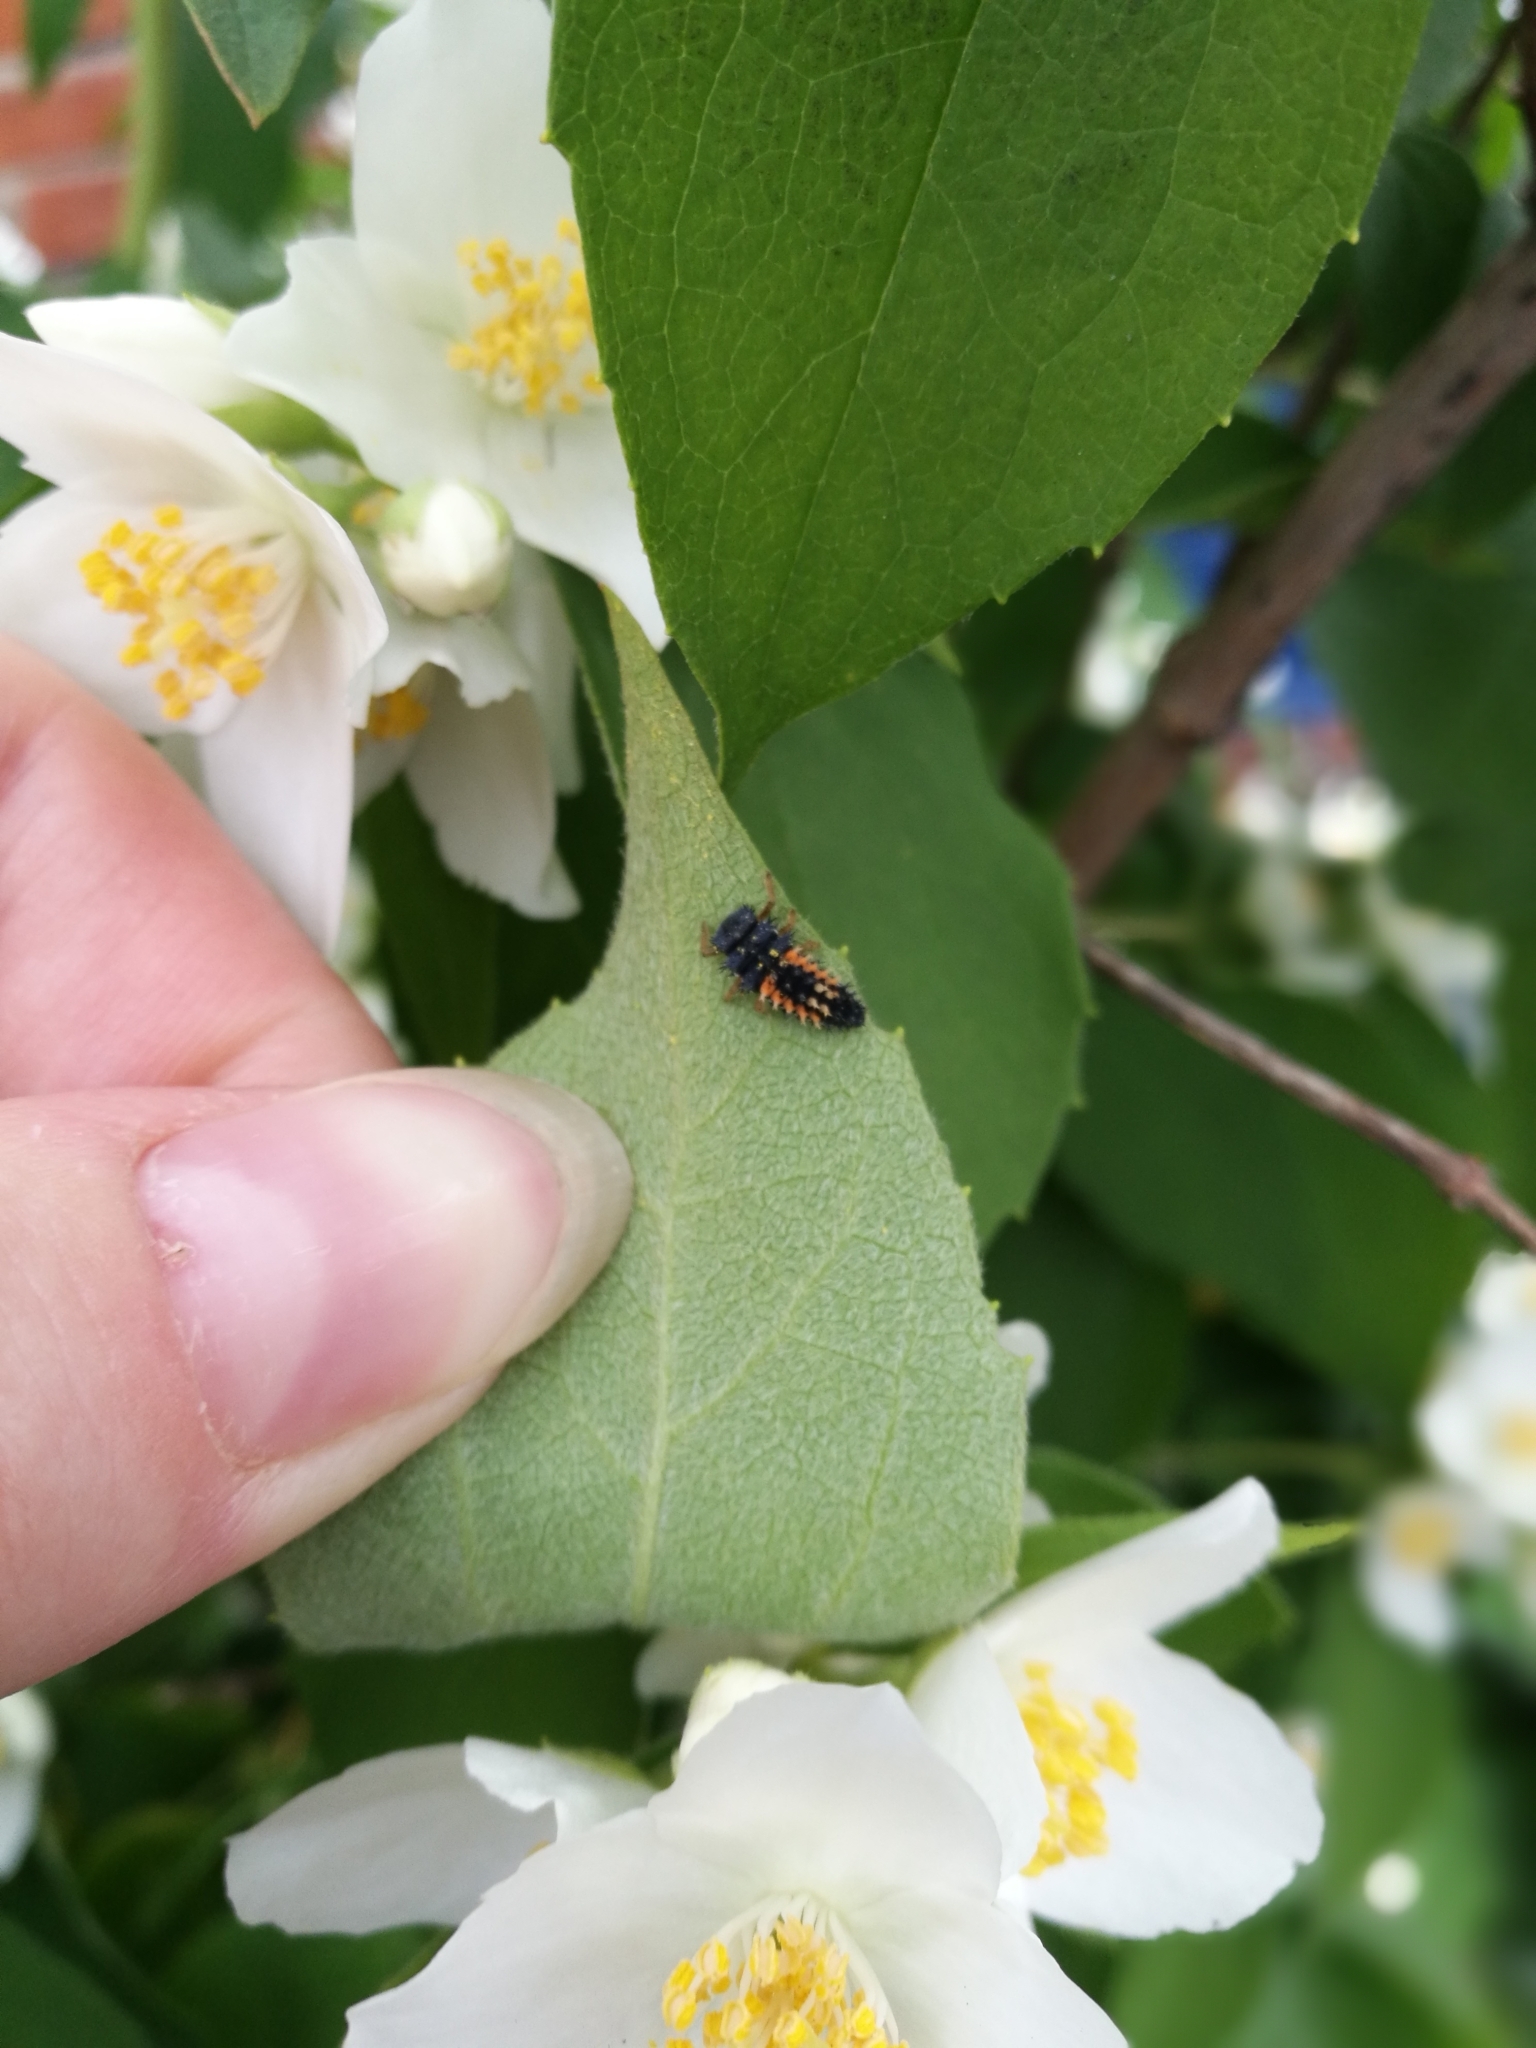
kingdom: Animalia
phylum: Arthropoda
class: Insecta
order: Coleoptera
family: Coccinellidae
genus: Harmonia
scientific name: Harmonia axyridis
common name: Harlequin ladybird
